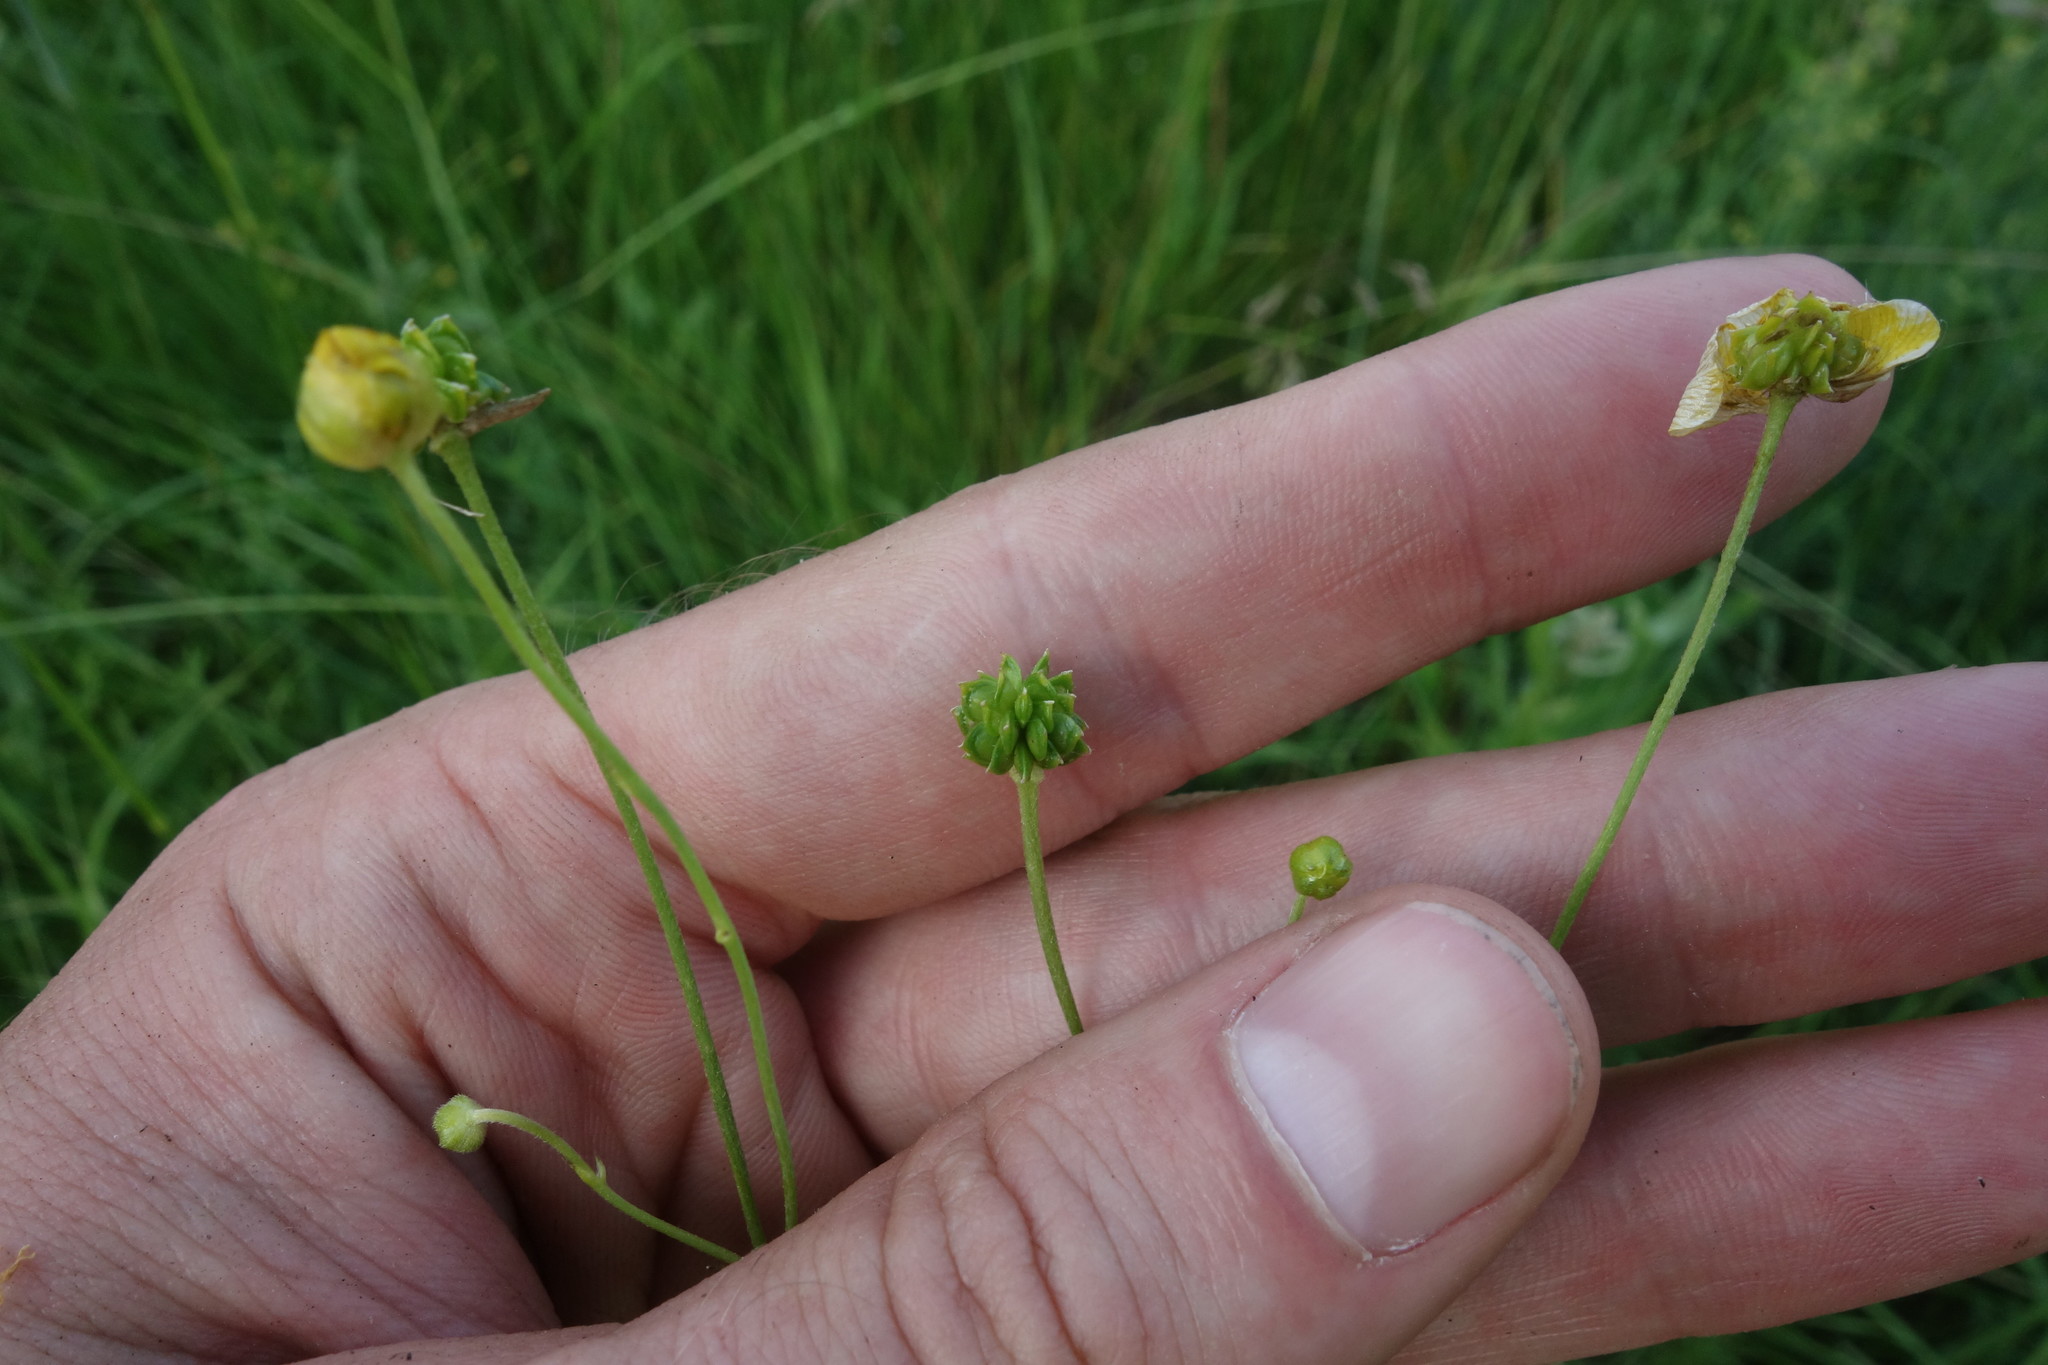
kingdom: Plantae
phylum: Tracheophyta
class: Magnoliopsida
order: Ranunculales
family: Ranunculaceae
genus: Ranunculus
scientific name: Ranunculus acris
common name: Meadow buttercup
